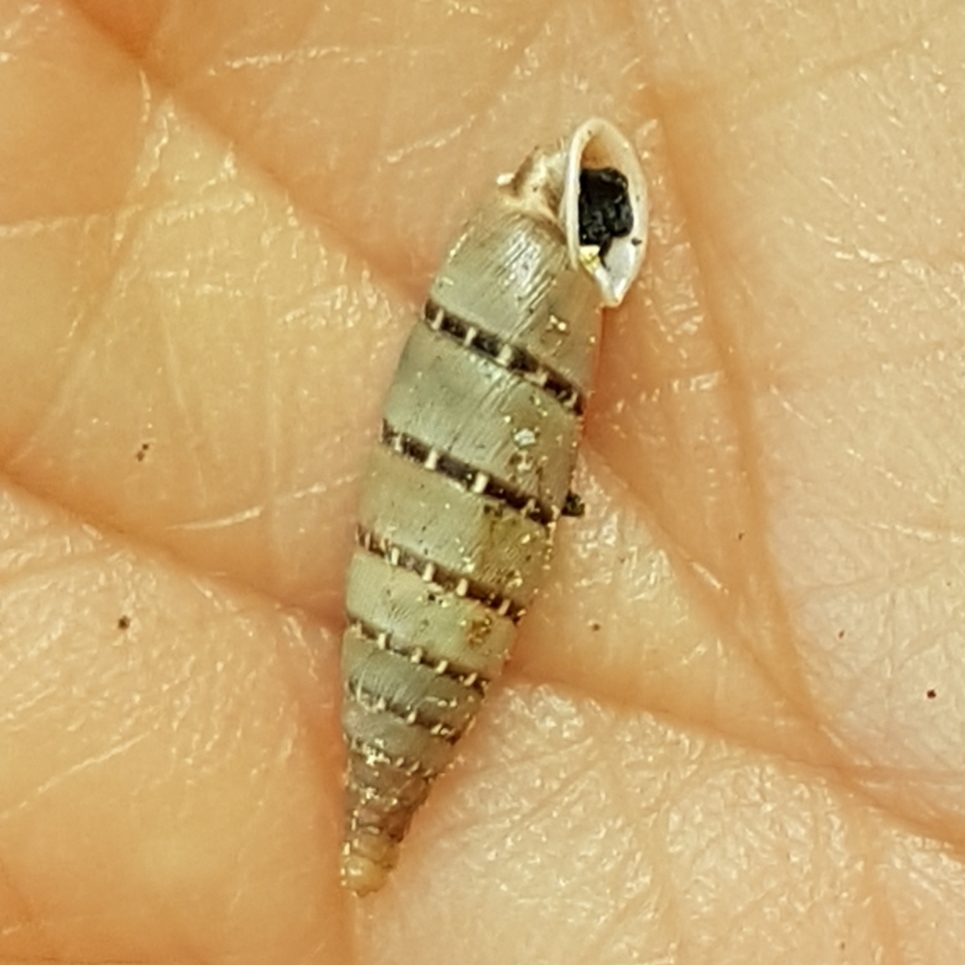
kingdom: Animalia
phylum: Mollusca
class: Gastropoda
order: Stylommatophora
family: Clausiliidae
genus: Papillifera
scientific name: Papillifera papillaris
